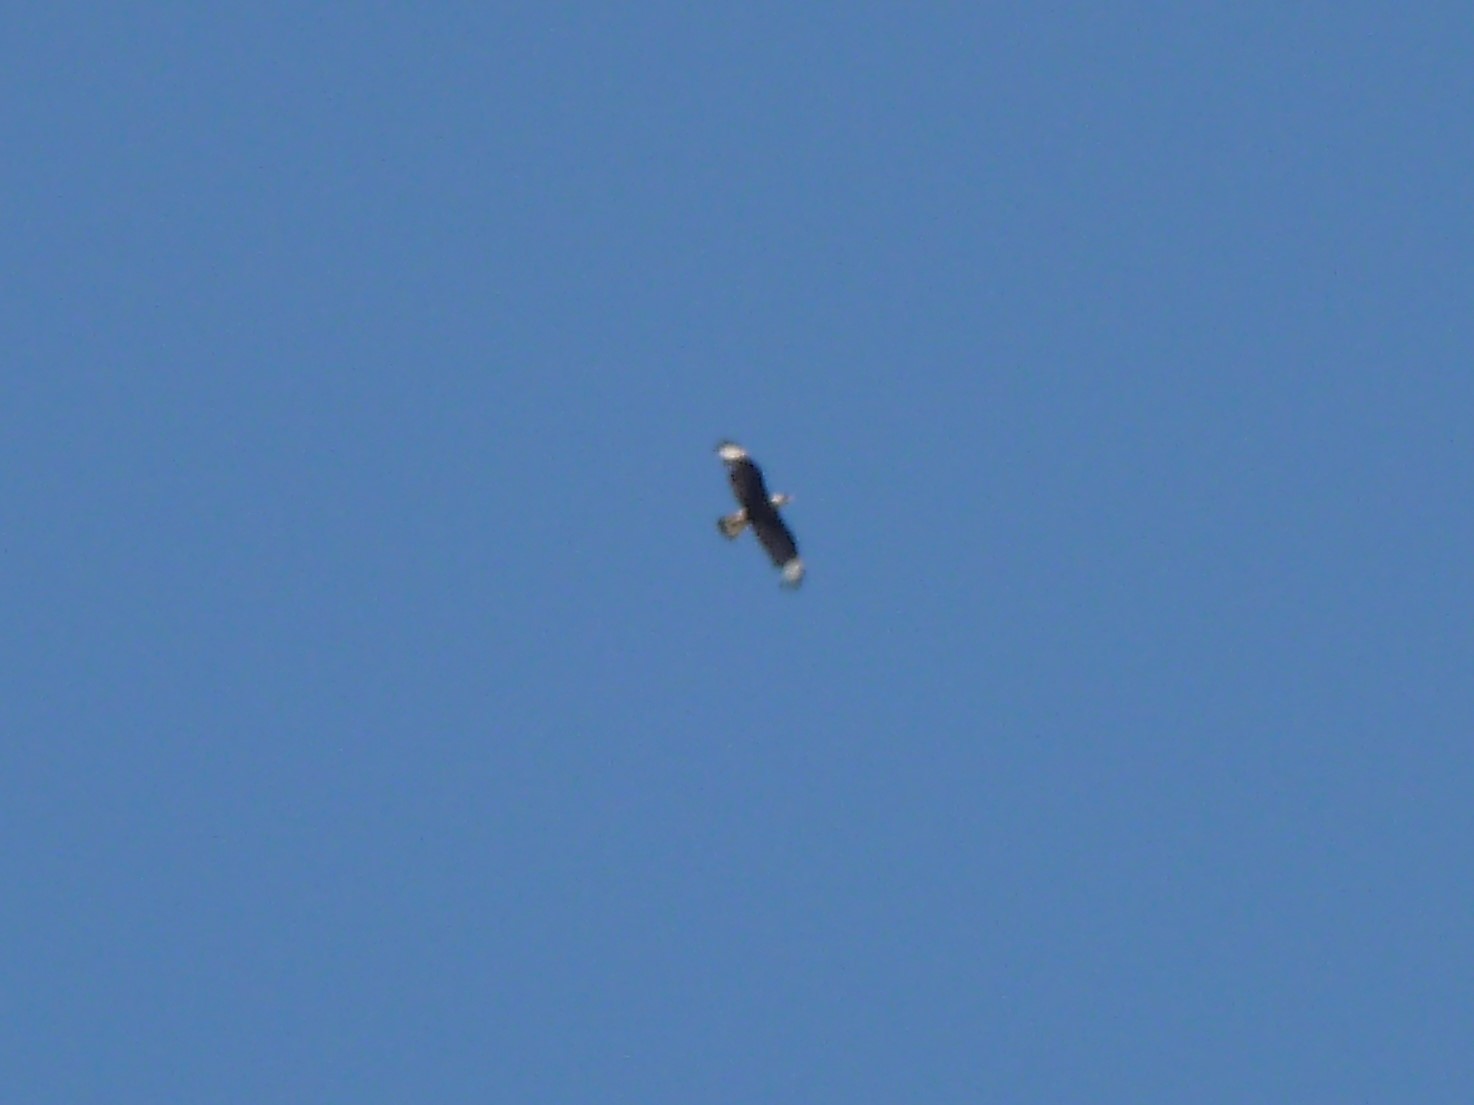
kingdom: Animalia
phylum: Chordata
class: Aves
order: Falconiformes
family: Falconidae
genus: Caracara
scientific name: Caracara plancus
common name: Southern caracara
